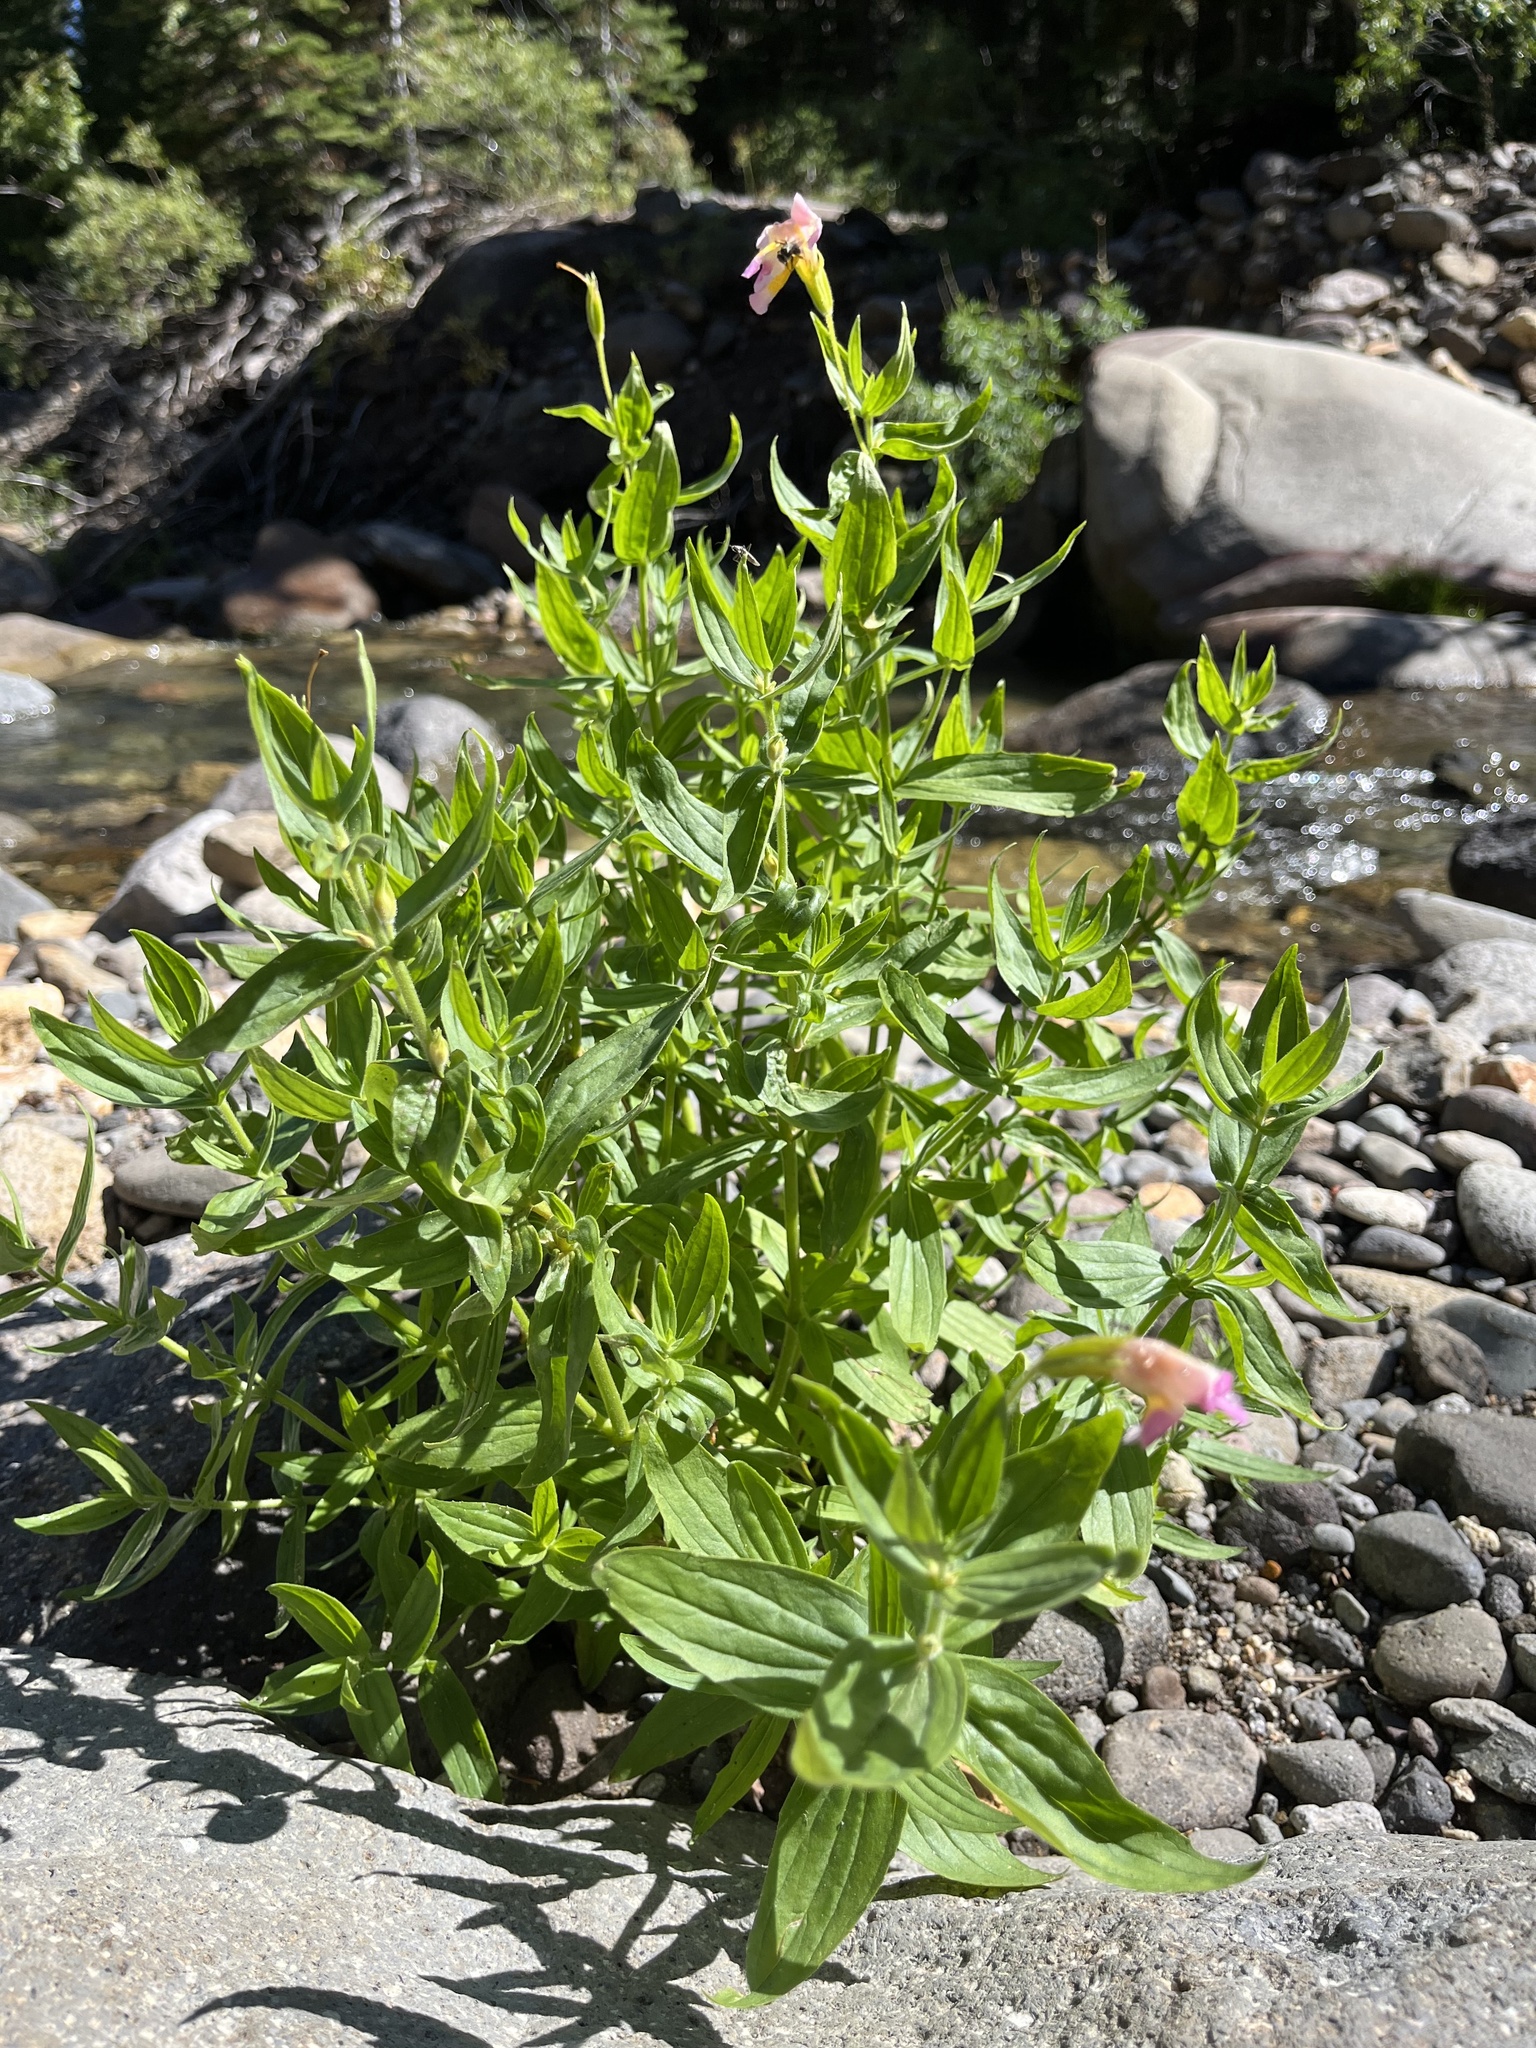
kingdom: Plantae
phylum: Tracheophyta
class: Magnoliopsida
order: Lamiales
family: Phrymaceae
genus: Erythranthe
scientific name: Erythranthe erubescens
